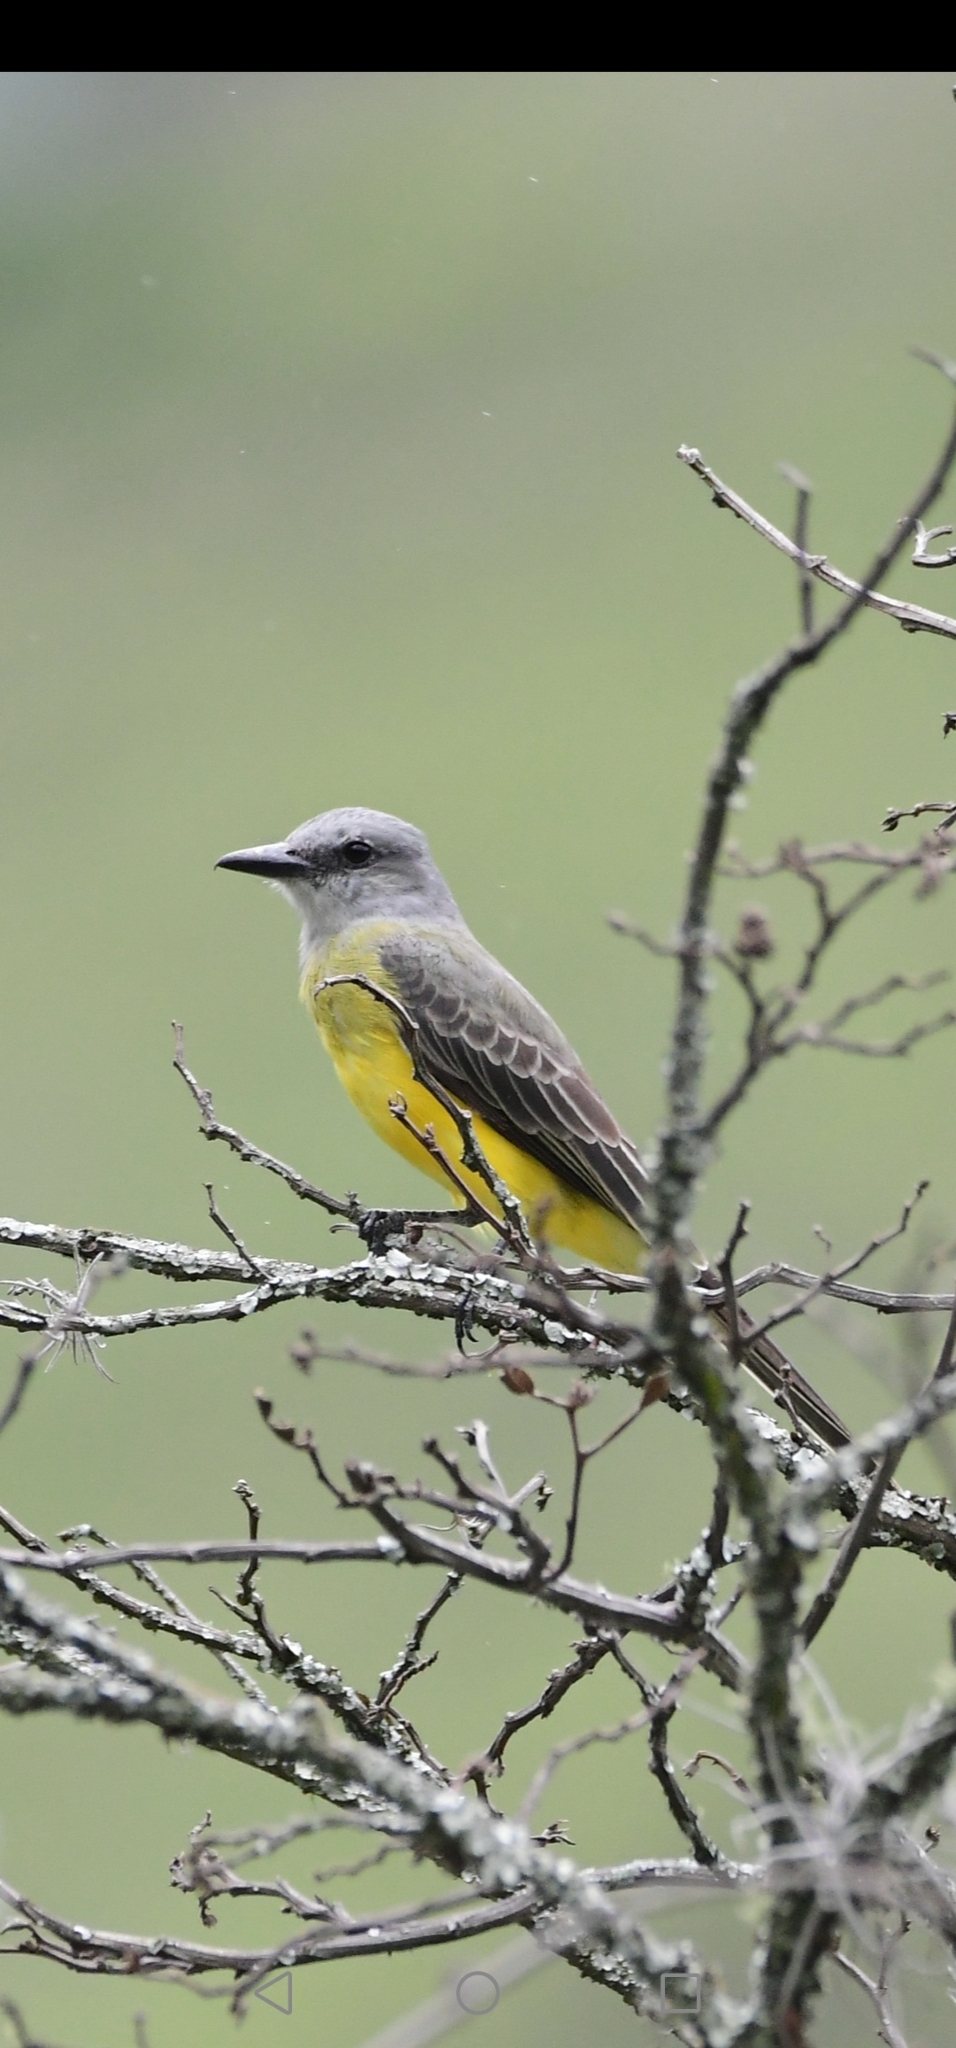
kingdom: Animalia
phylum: Chordata
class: Aves
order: Passeriformes
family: Tyrannidae
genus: Tyrannus
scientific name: Tyrannus melancholicus
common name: Tropical kingbird
